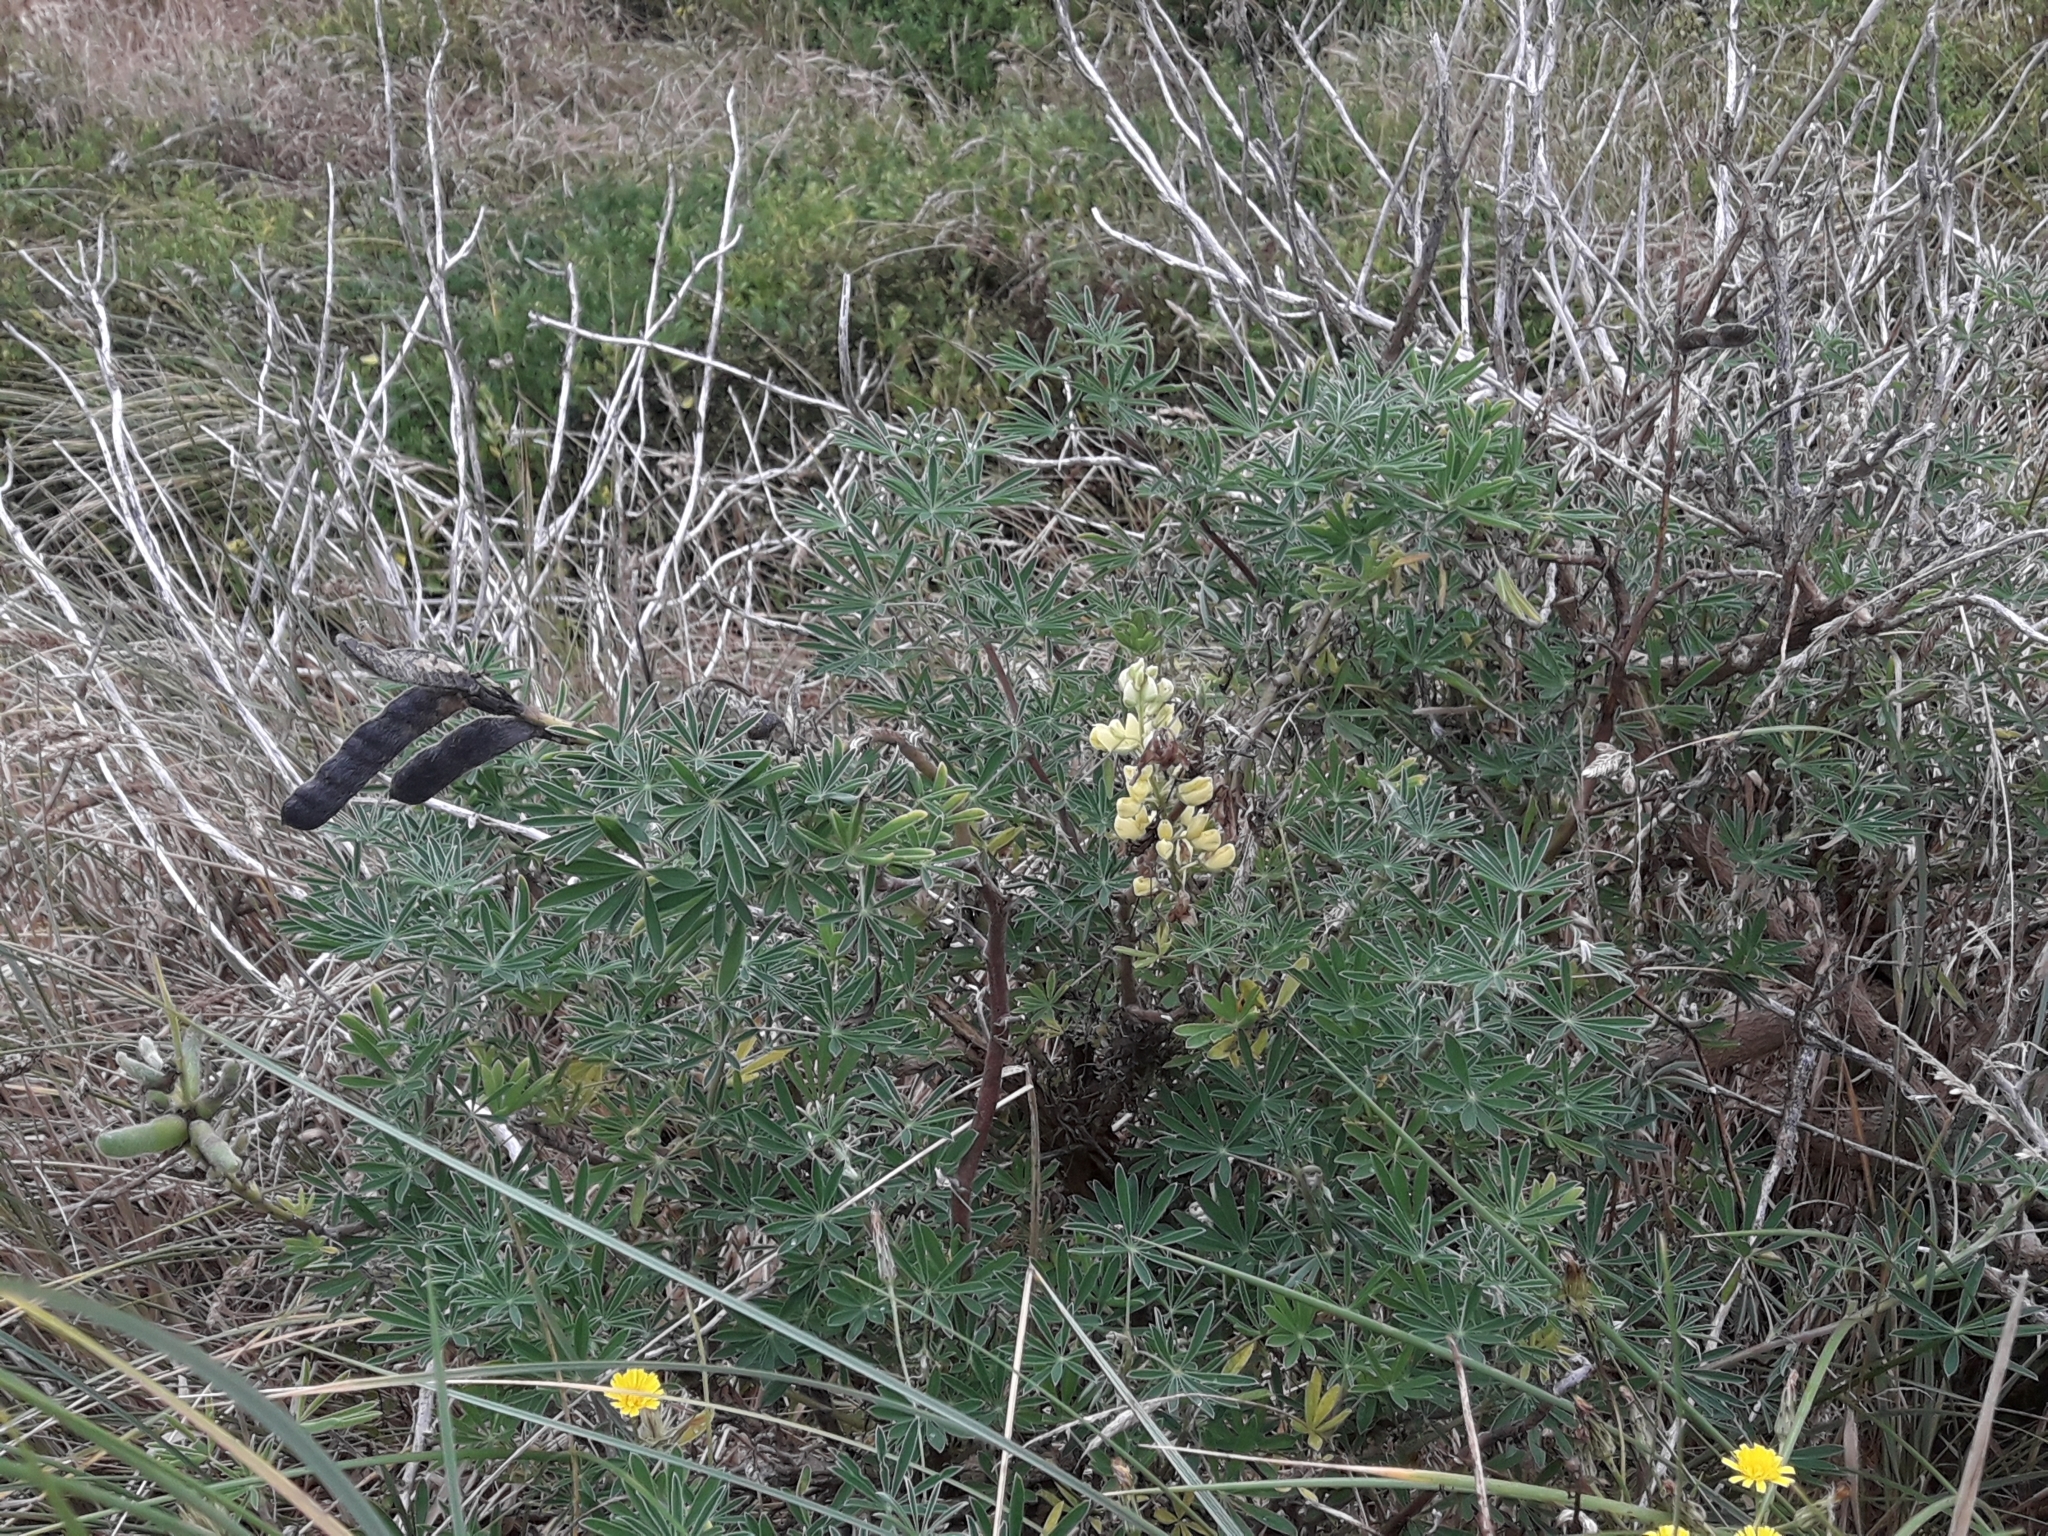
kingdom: Plantae
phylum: Tracheophyta
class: Magnoliopsida
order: Fabales
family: Fabaceae
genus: Lupinus
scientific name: Lupinus arboreus
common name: Yellow bush lupine
